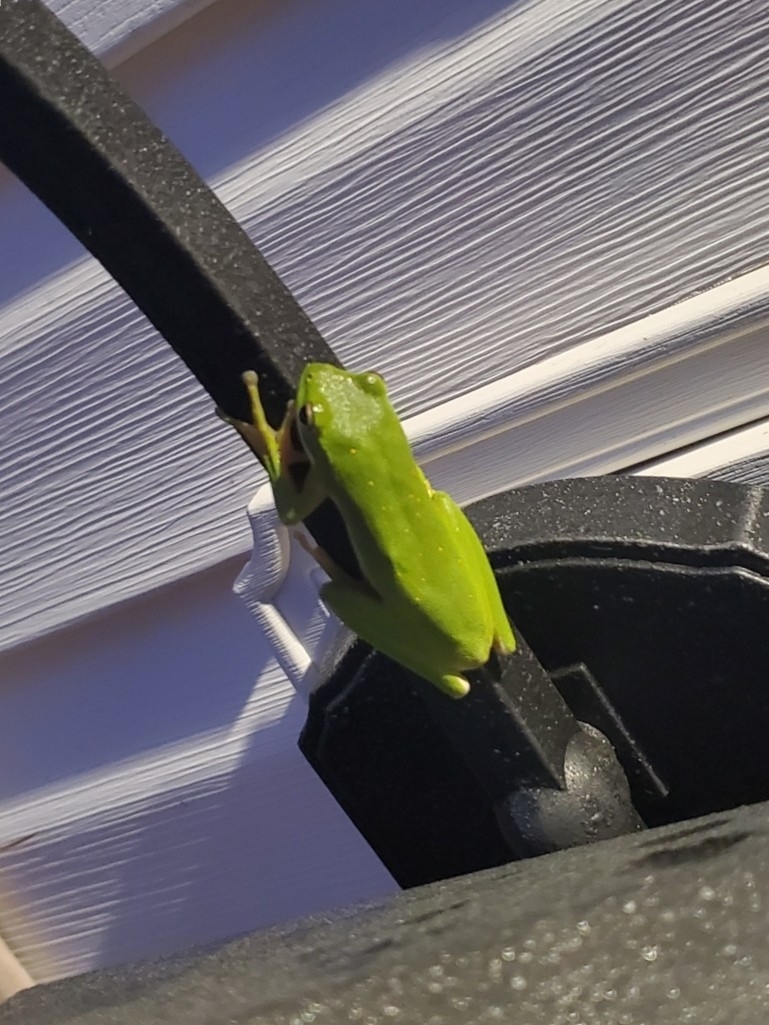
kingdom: Animalia
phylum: Chordata
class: Amphibia
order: Anura
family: Hylidae
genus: Dryophytes
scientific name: Dryophytes cinereus
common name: Green treefrog
